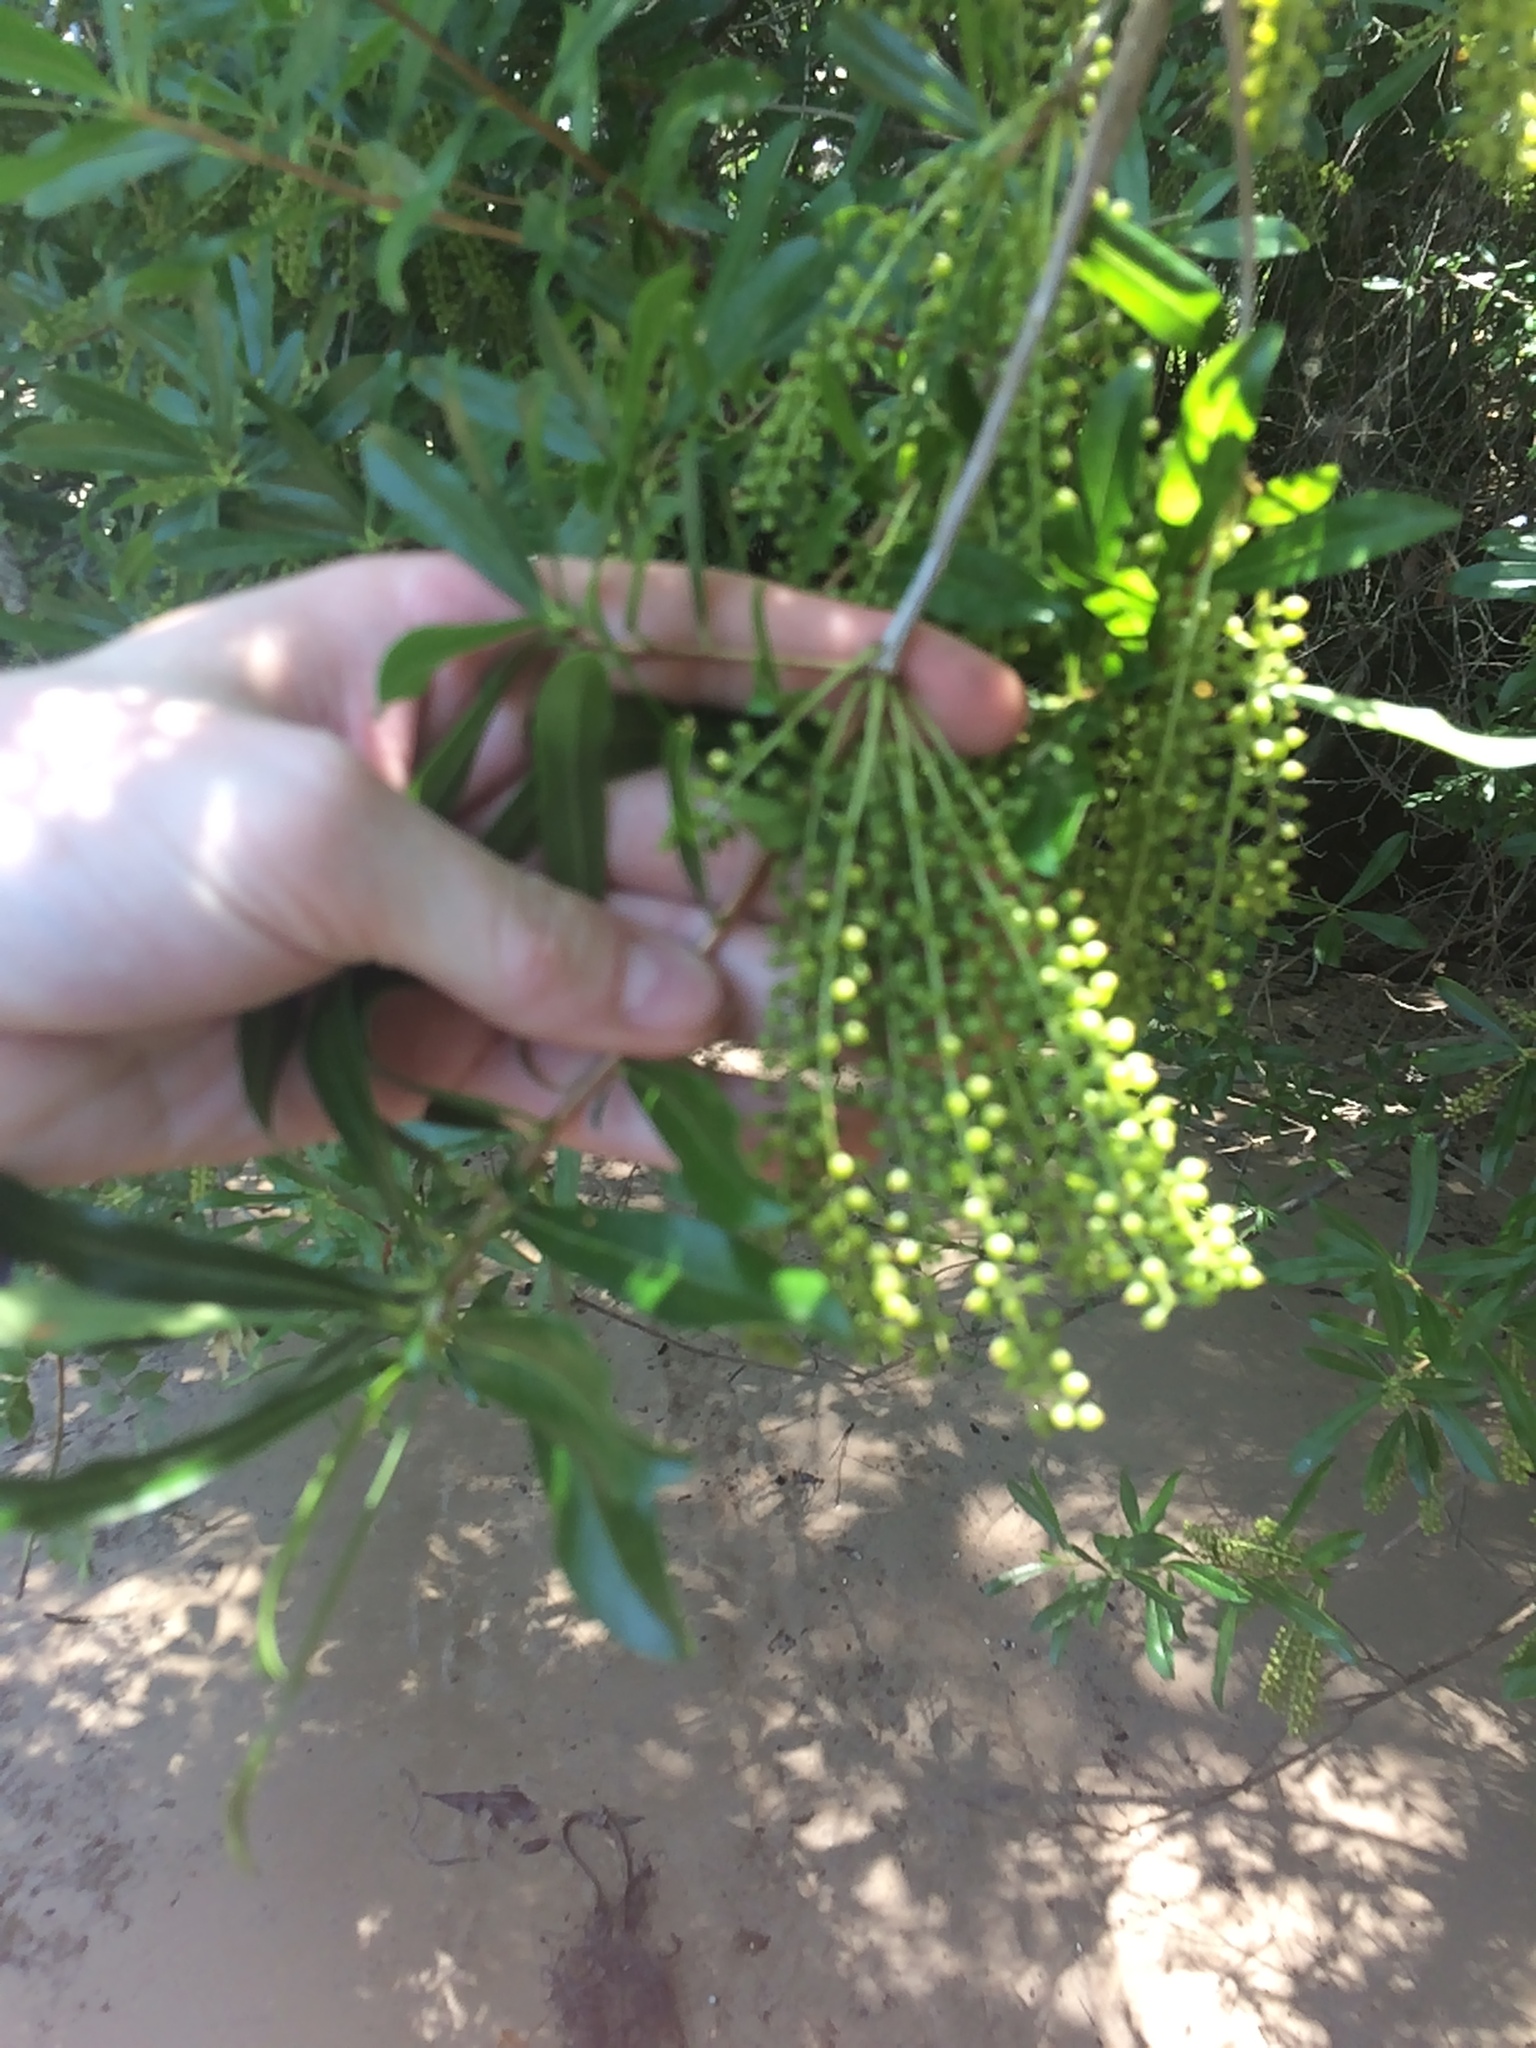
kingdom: Plantae
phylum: Tracheophyta
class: Magnoliopsida
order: Ericales
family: Cyrillaceae
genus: Cyrilla
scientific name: Cyrilla racemiflora
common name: Black titi
